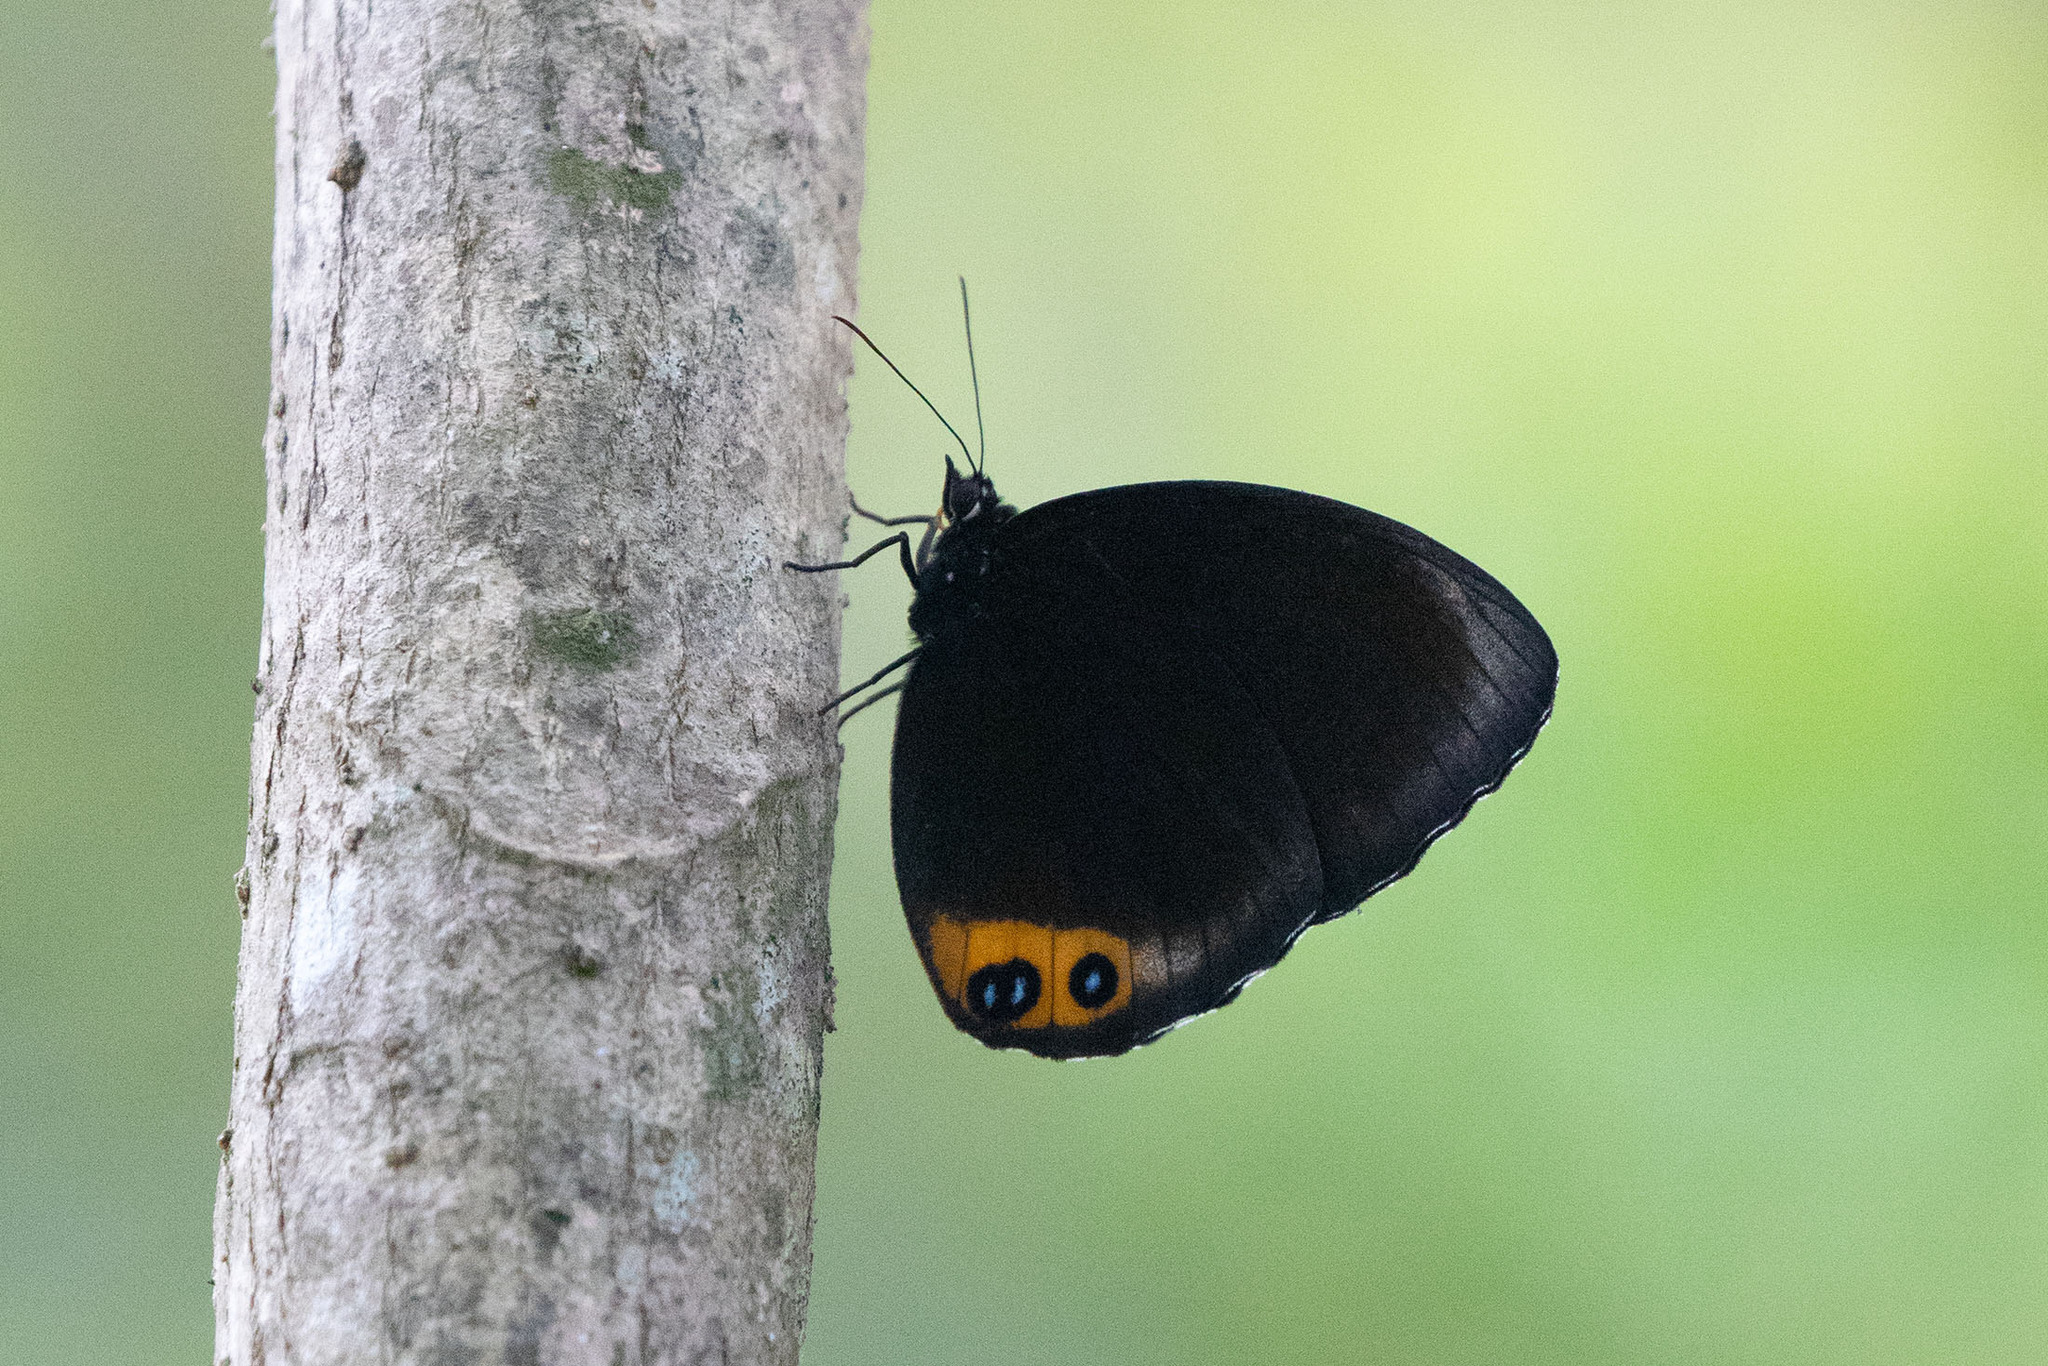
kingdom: Animalia
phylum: Arthropoda
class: Insecta
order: Lepidoptera
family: Nymphalidae
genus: Elymnias
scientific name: Elymnias agondas
